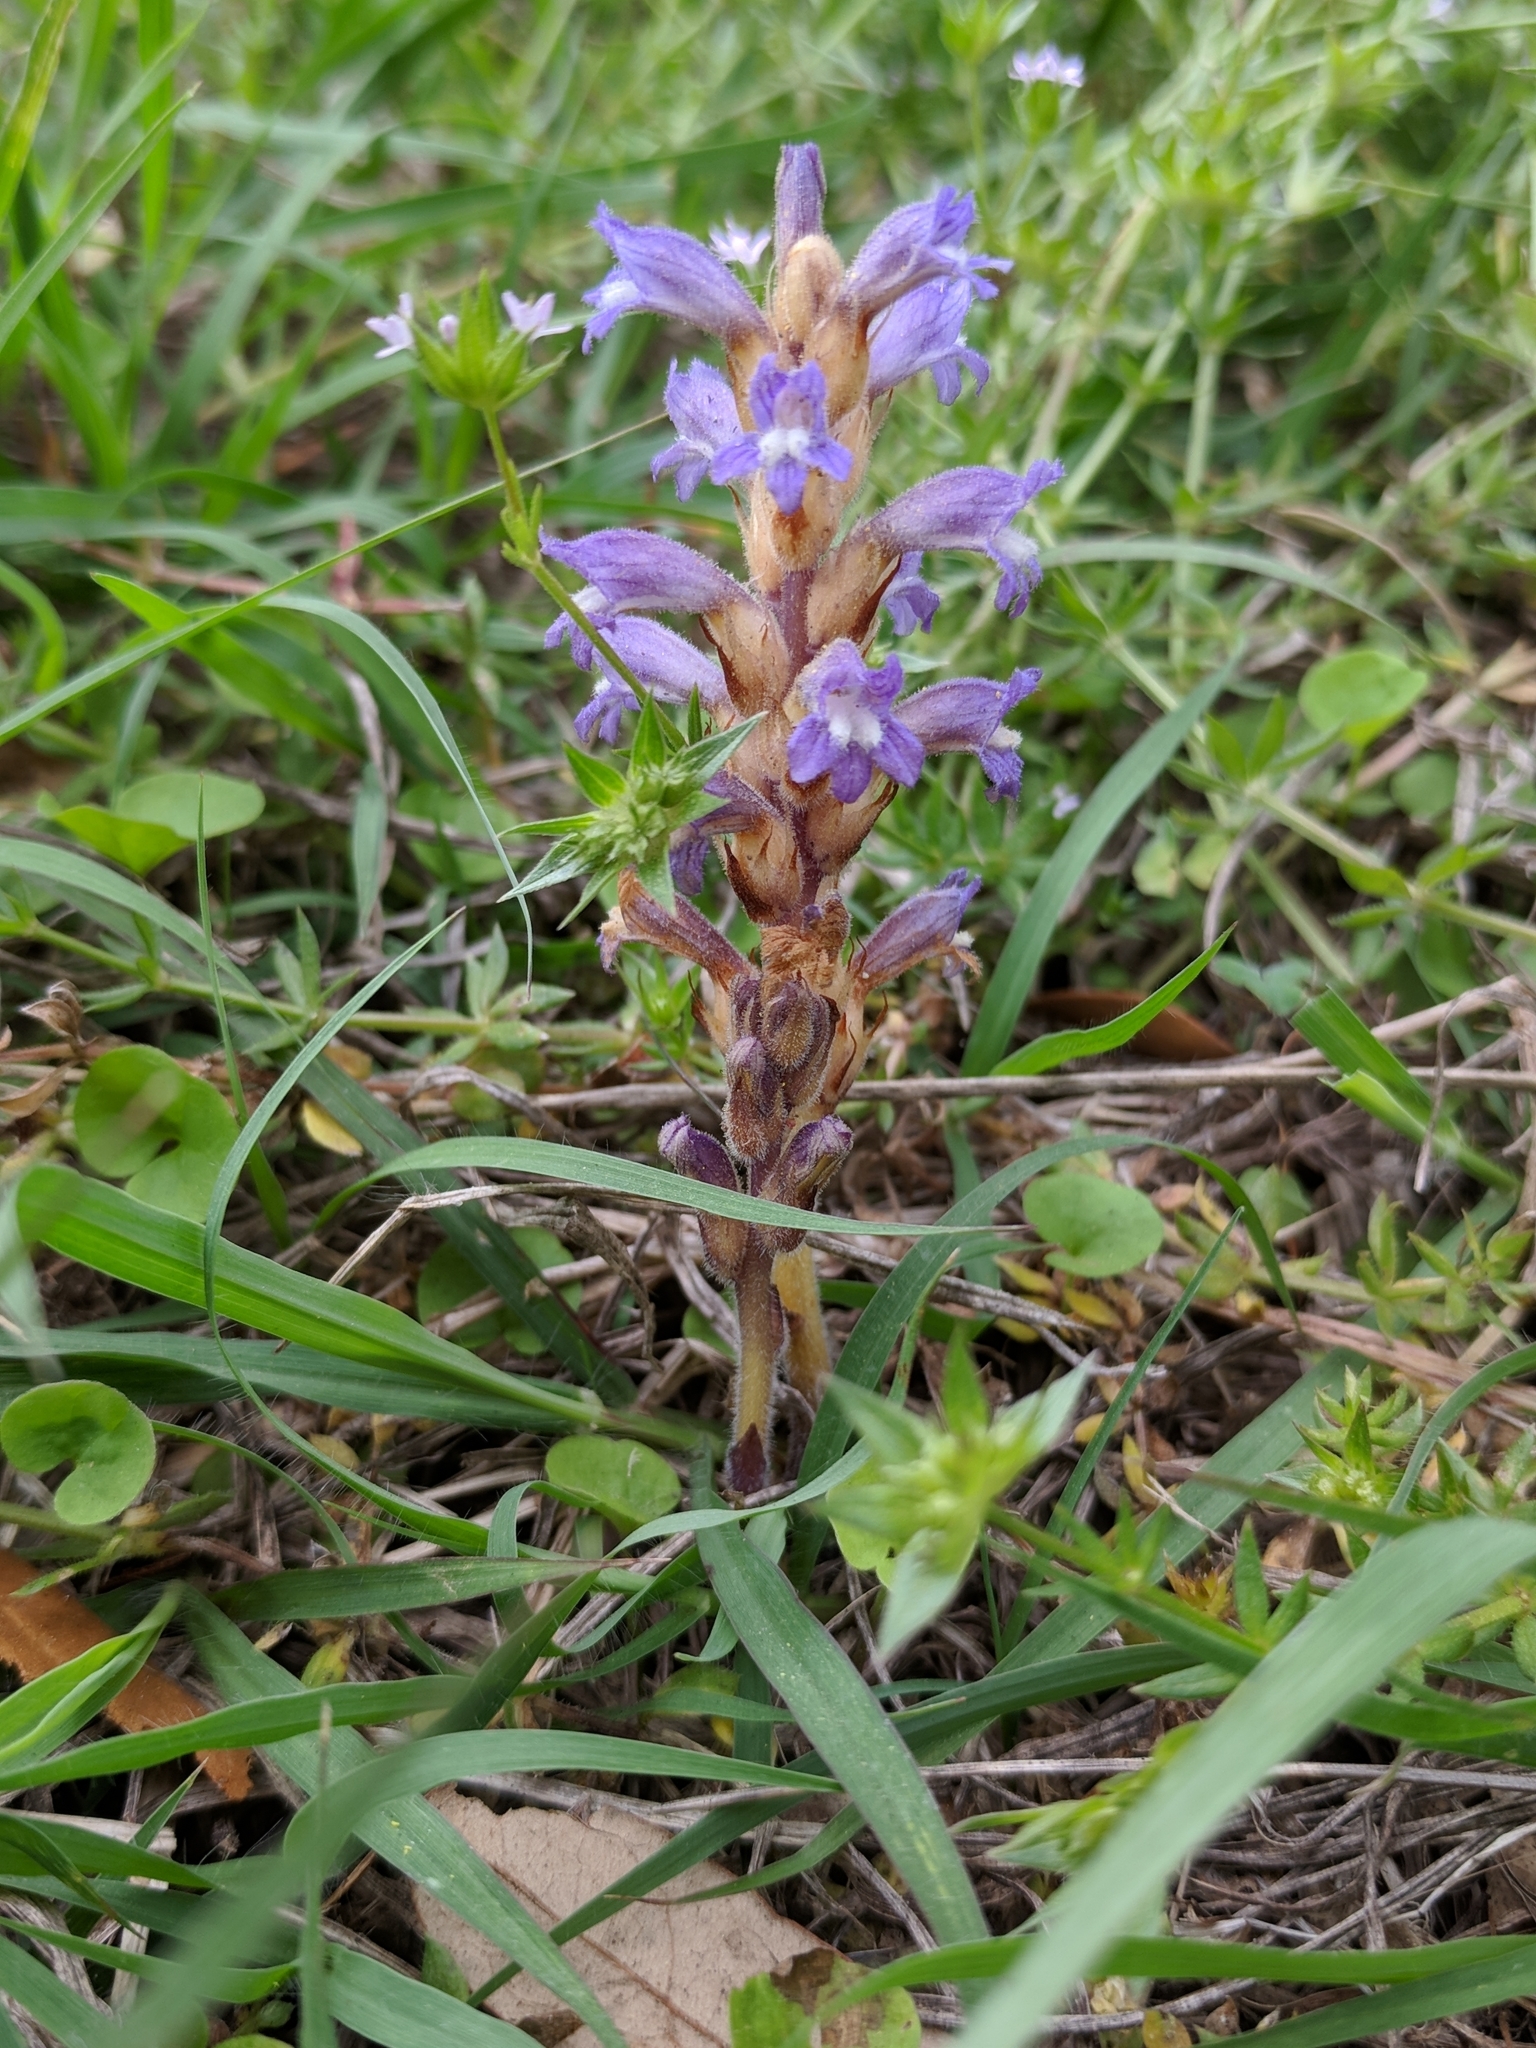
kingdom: Plantae
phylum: Tracheophyta
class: Magnoliopsida
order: Lamiales
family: Orobanchaceae
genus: Phelipanche
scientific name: Phelipanche ramosa
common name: Branched broomrape
